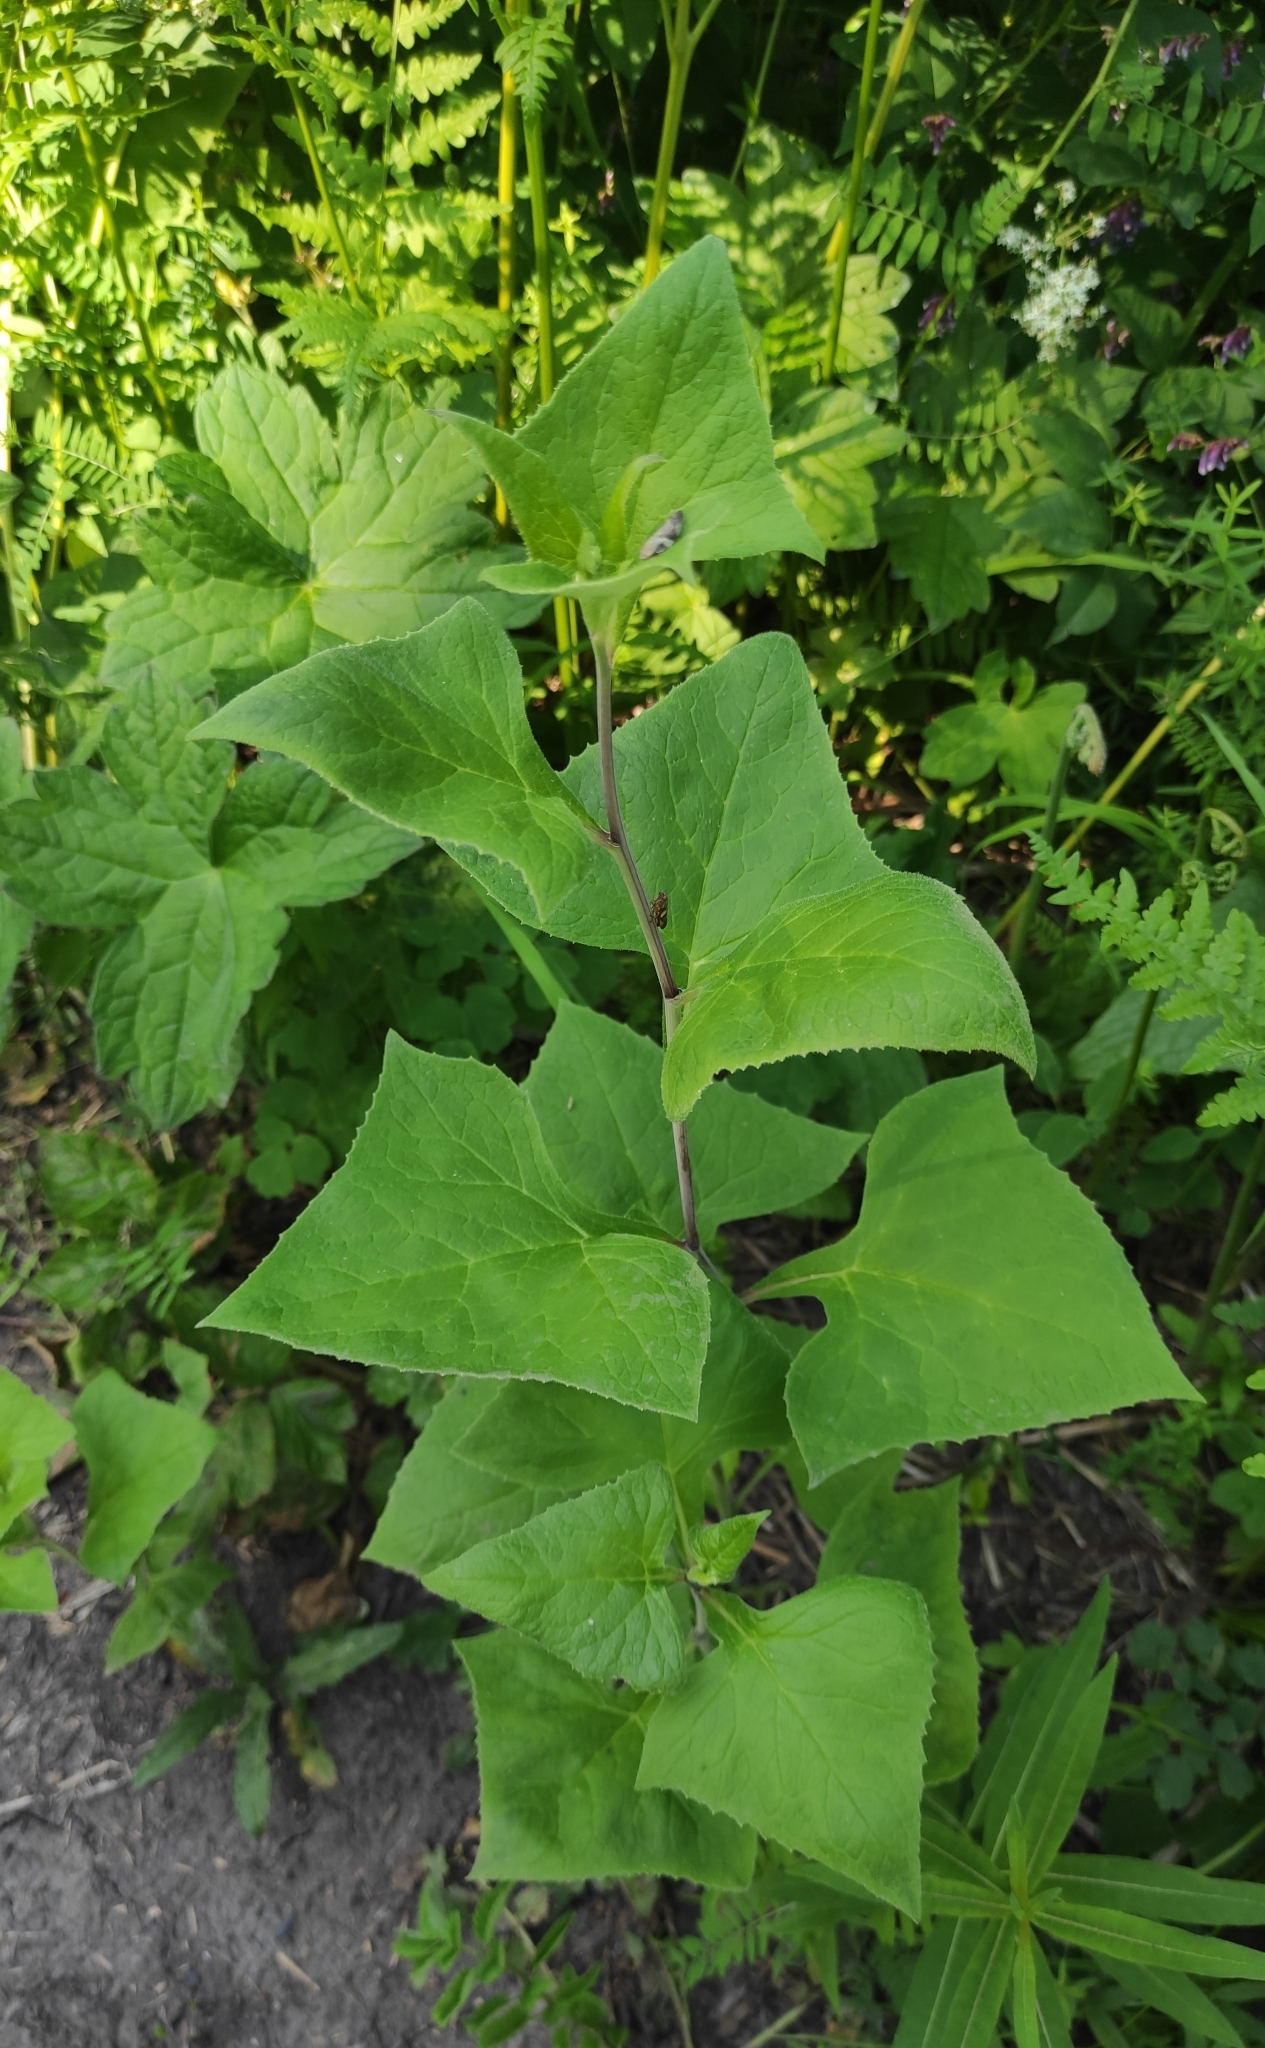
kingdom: Plantae
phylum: Tracheophyta
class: Magnoliopsida
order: Asterales
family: Asteraceae
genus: Parasenecio
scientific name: Parasenecio hastatus
